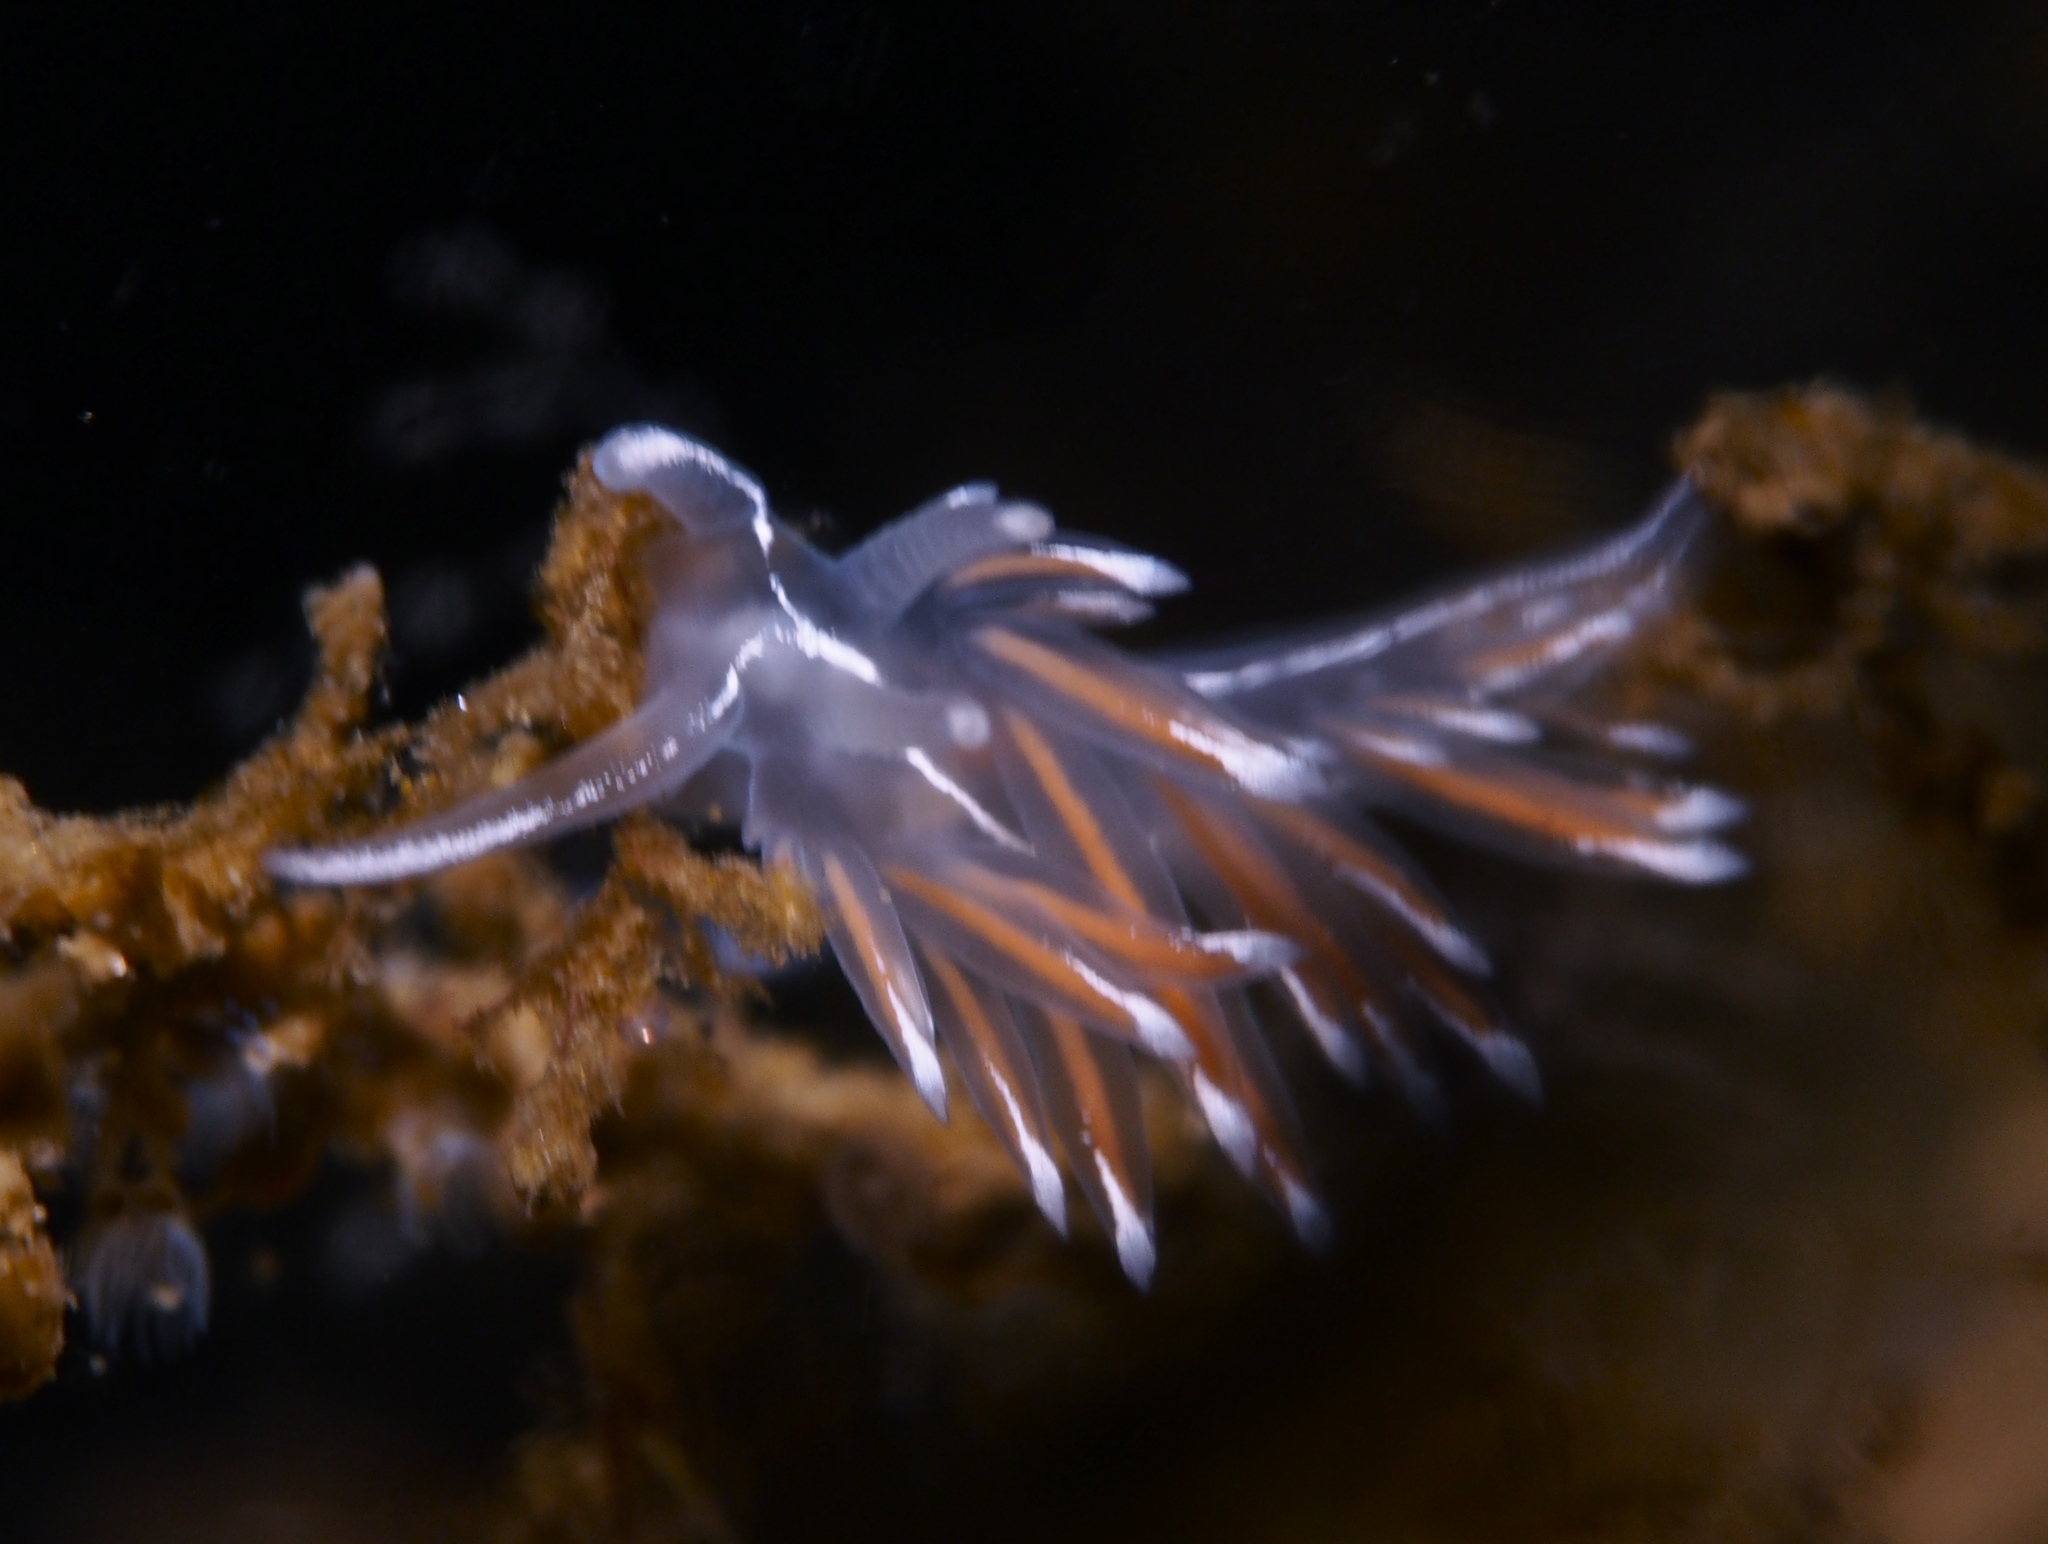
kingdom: Animalia
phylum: Mollusca
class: Gastropoda
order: Nudibranchia
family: Coryphellidae
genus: Coryphella
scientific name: Coryphella lineata
